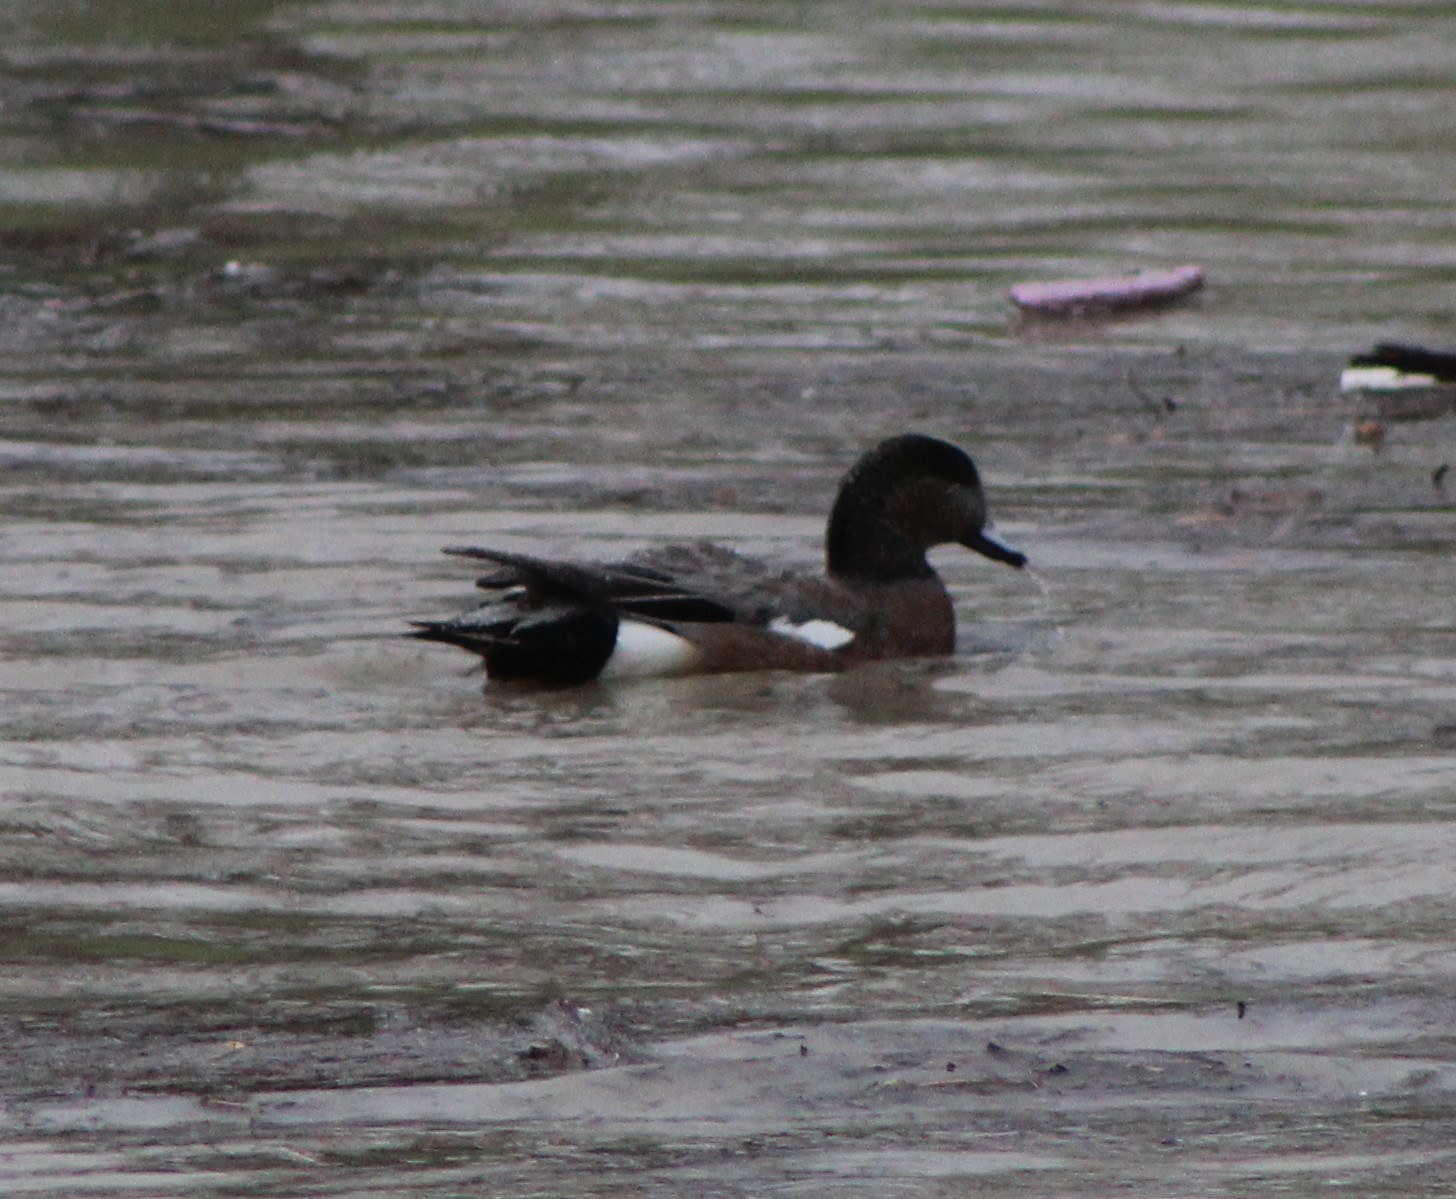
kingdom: Animalia
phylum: Chordata
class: Aves
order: Anseriformes
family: Anatidae
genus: Mareca
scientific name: Mareca americana
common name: American wigeon
